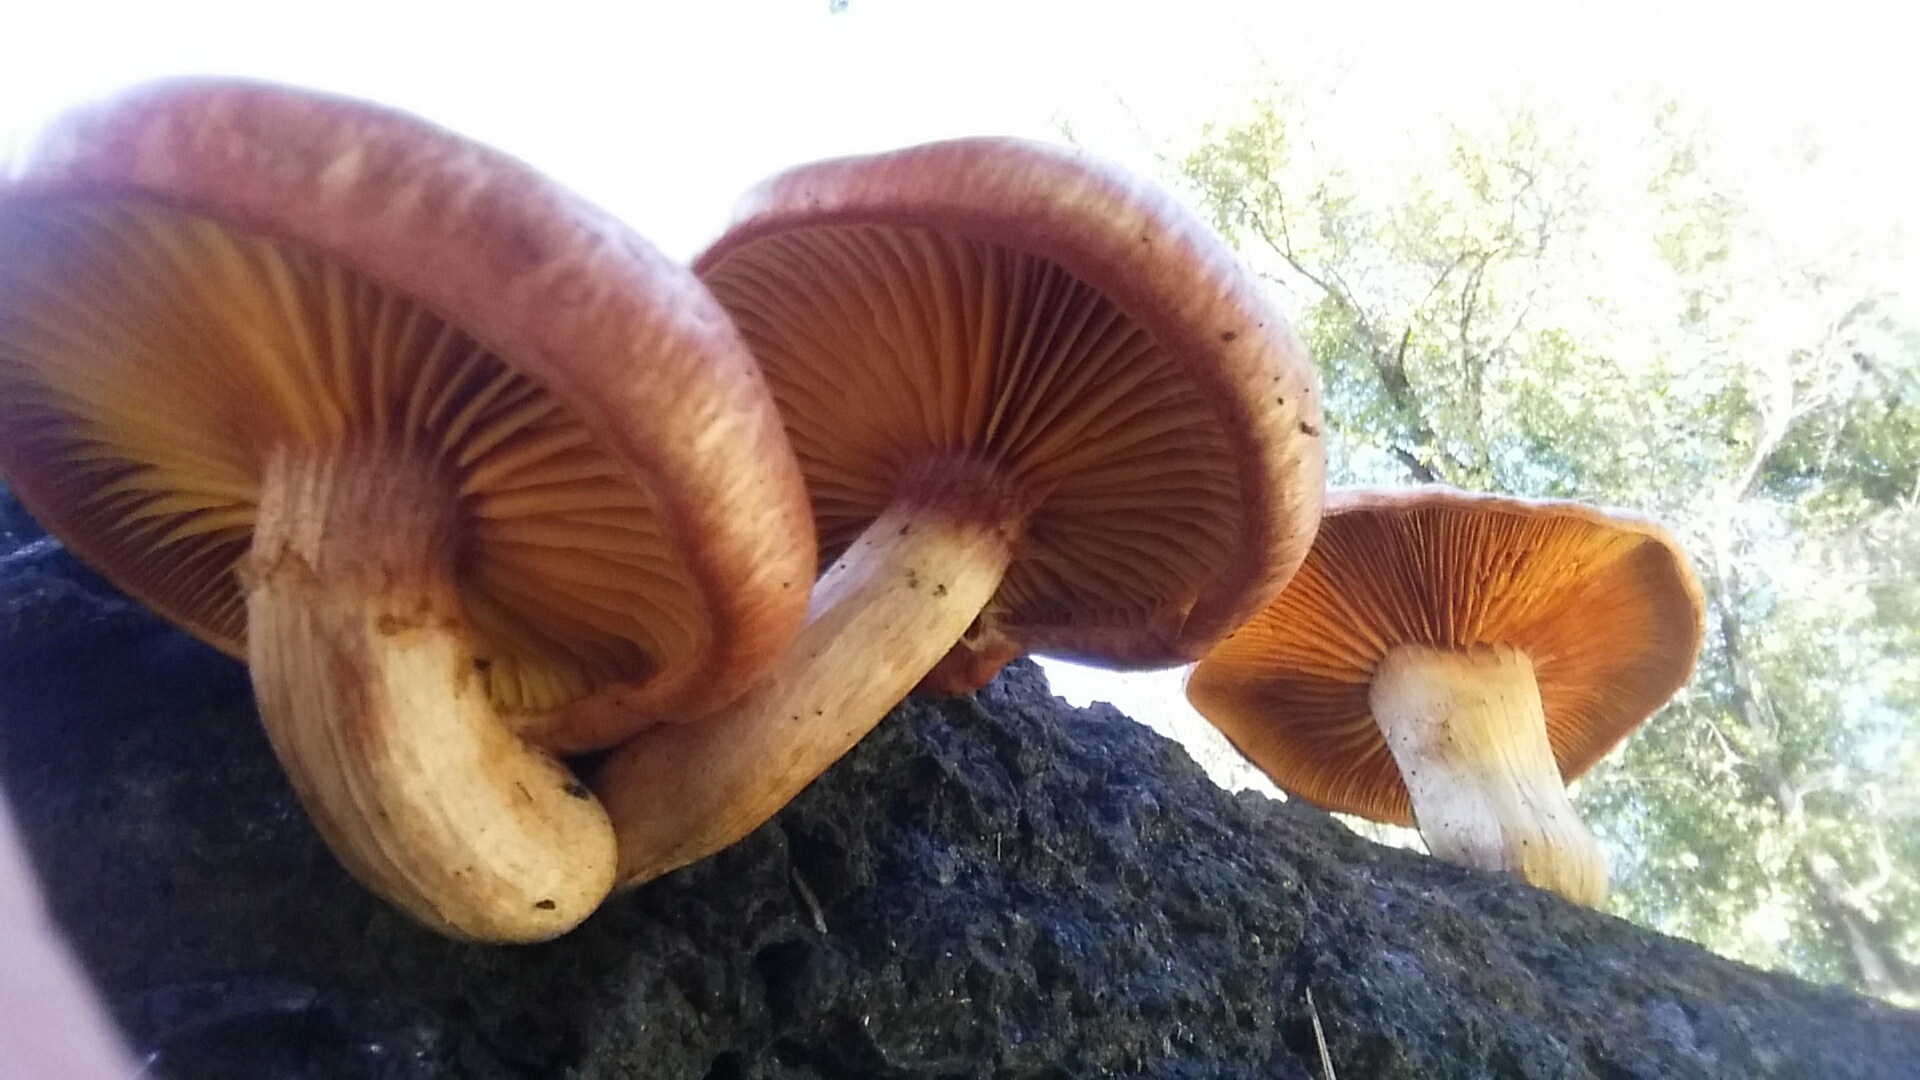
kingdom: Fungi
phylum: Basidiomycota
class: Agaricomycetes
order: Agaricales
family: Hymenogastraceae
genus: Gymnopilus
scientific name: Gymnopilus luteofolius
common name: Yellow-gilled gymnopilus
